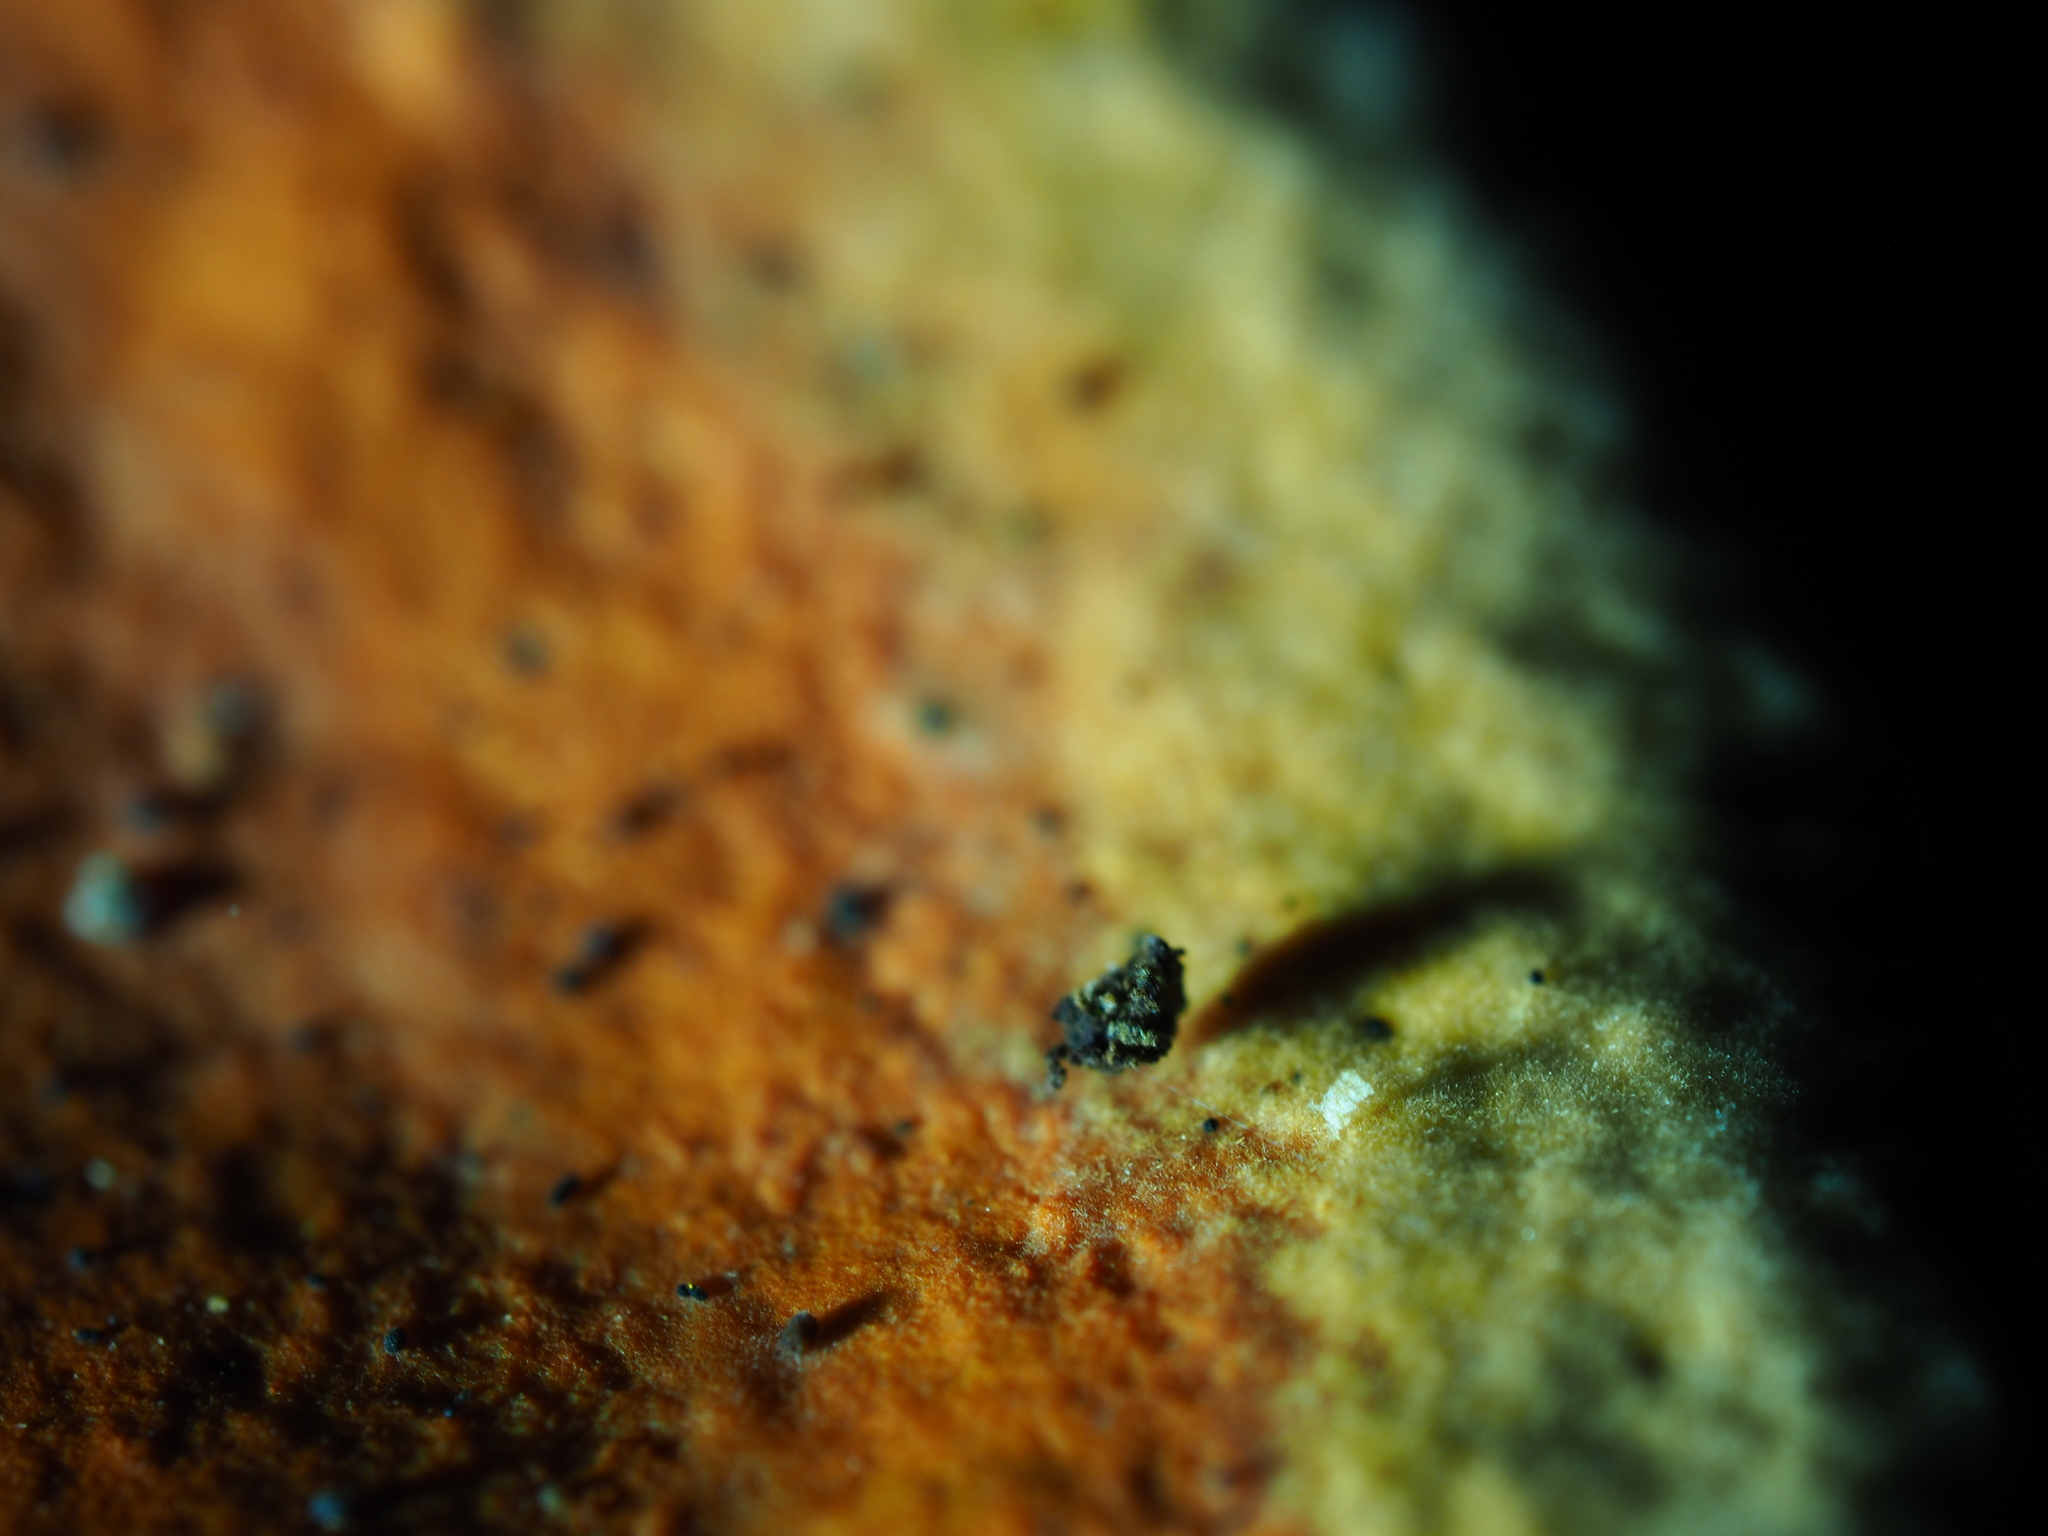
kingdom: Fungi
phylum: Basidiomycota
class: Agaricomycetes
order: Polyporales
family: Polyporaceae
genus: Trametes
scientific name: Trametes coccinea
